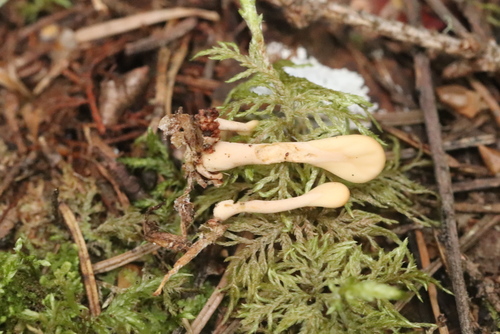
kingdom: Fungi
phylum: Ascomycota
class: Leotiomycetes
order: Rhytismatales
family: Cudoniaceae
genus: Spathularia
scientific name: Spathularia flavida
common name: Yellow fan
